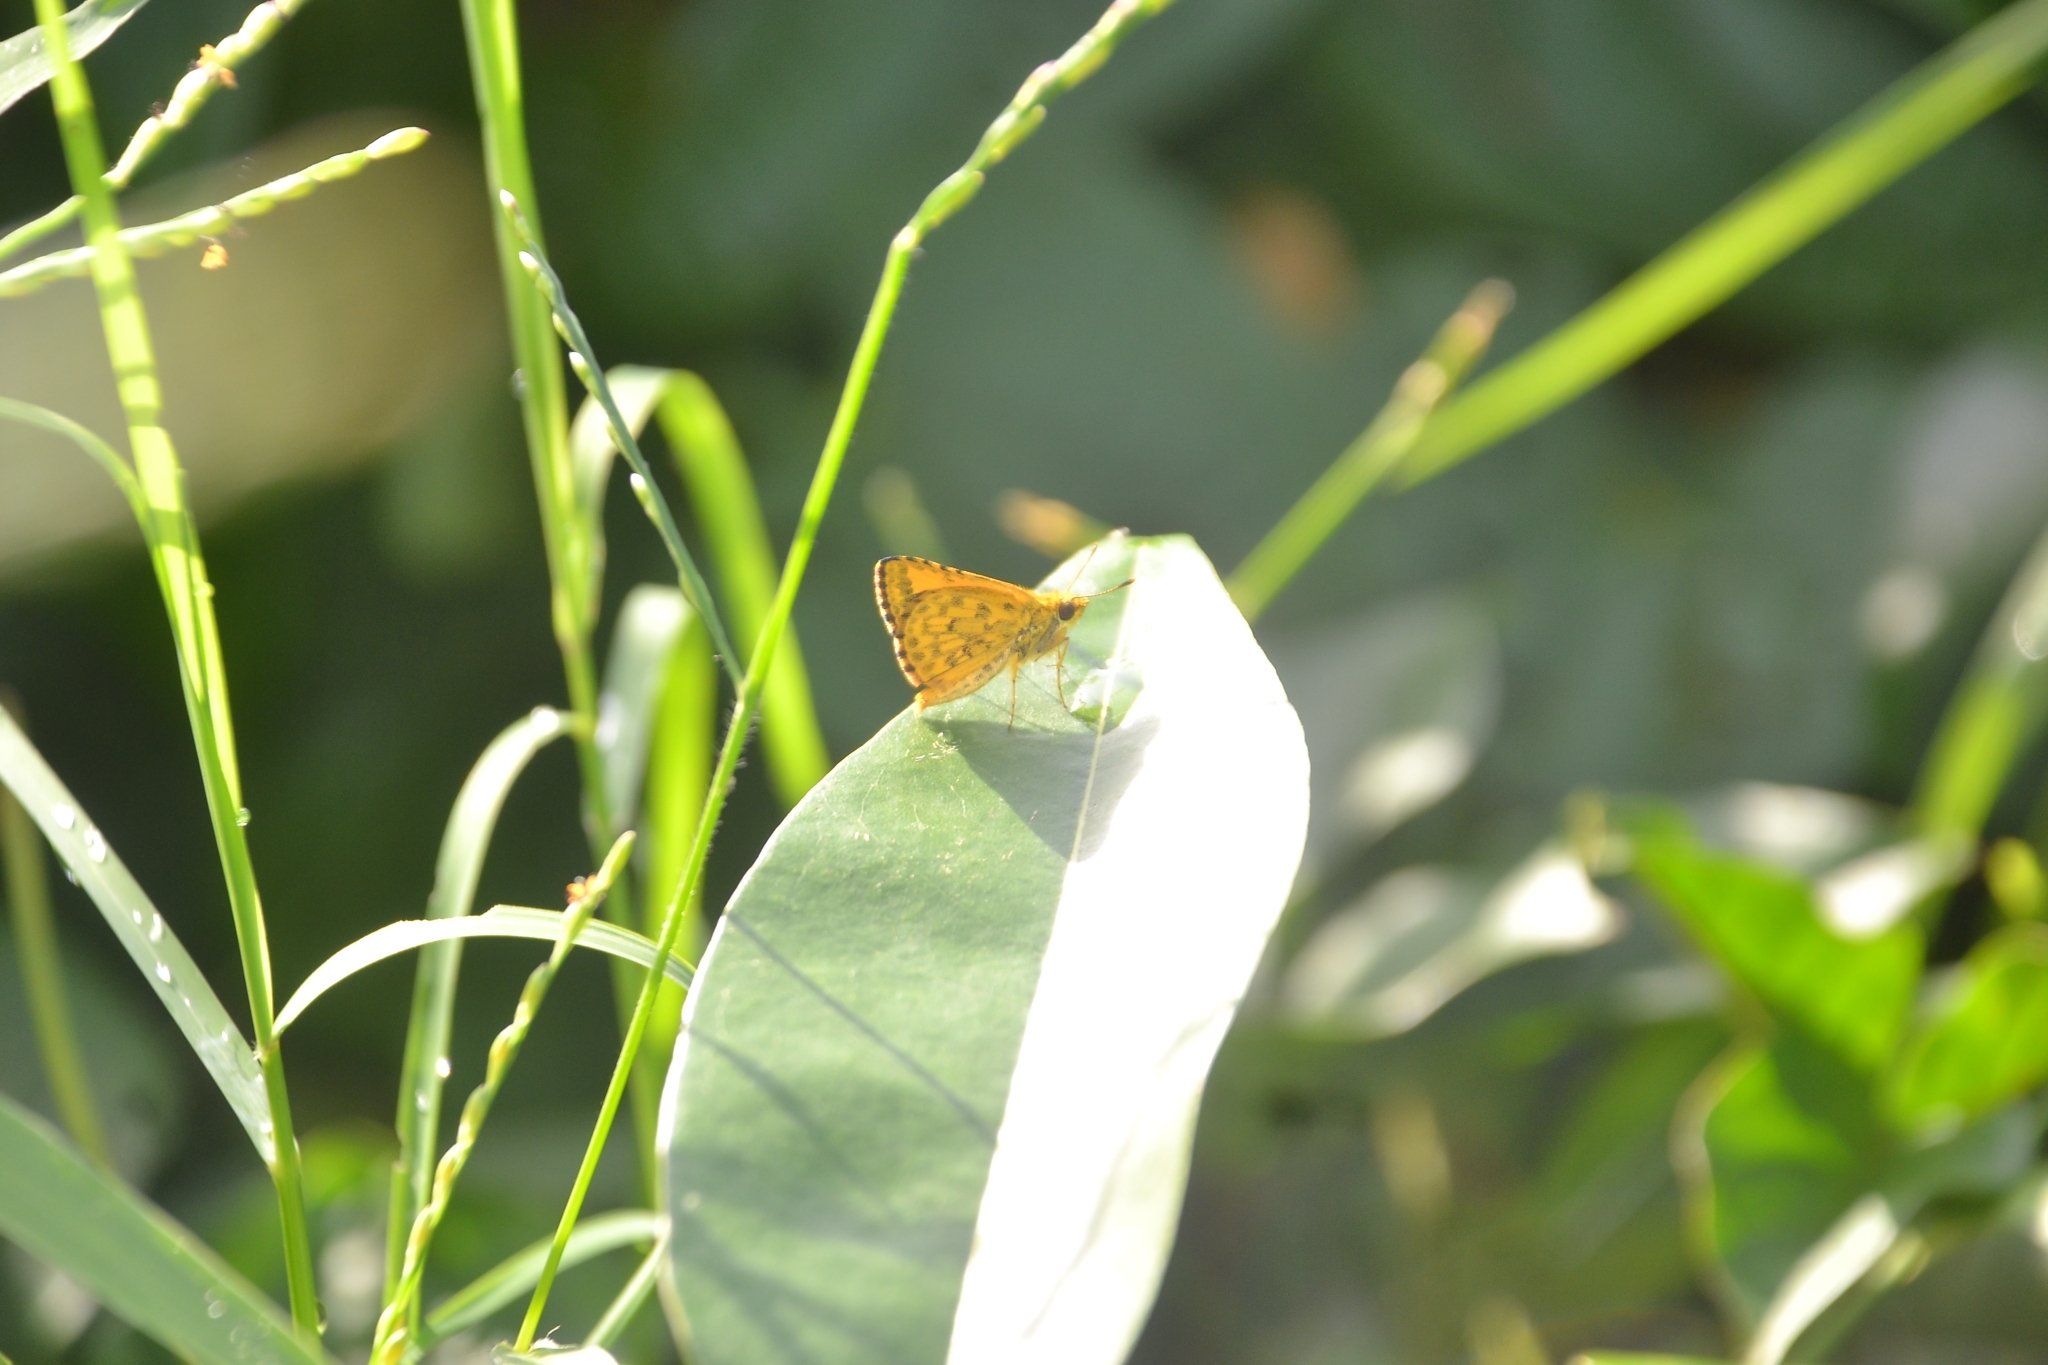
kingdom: Animalia
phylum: Arthropoda
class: Insecta
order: Lepidoptera
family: Hesperiidae
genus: Ampittia
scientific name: Ampittia dioscorides
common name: Common bush hopper
